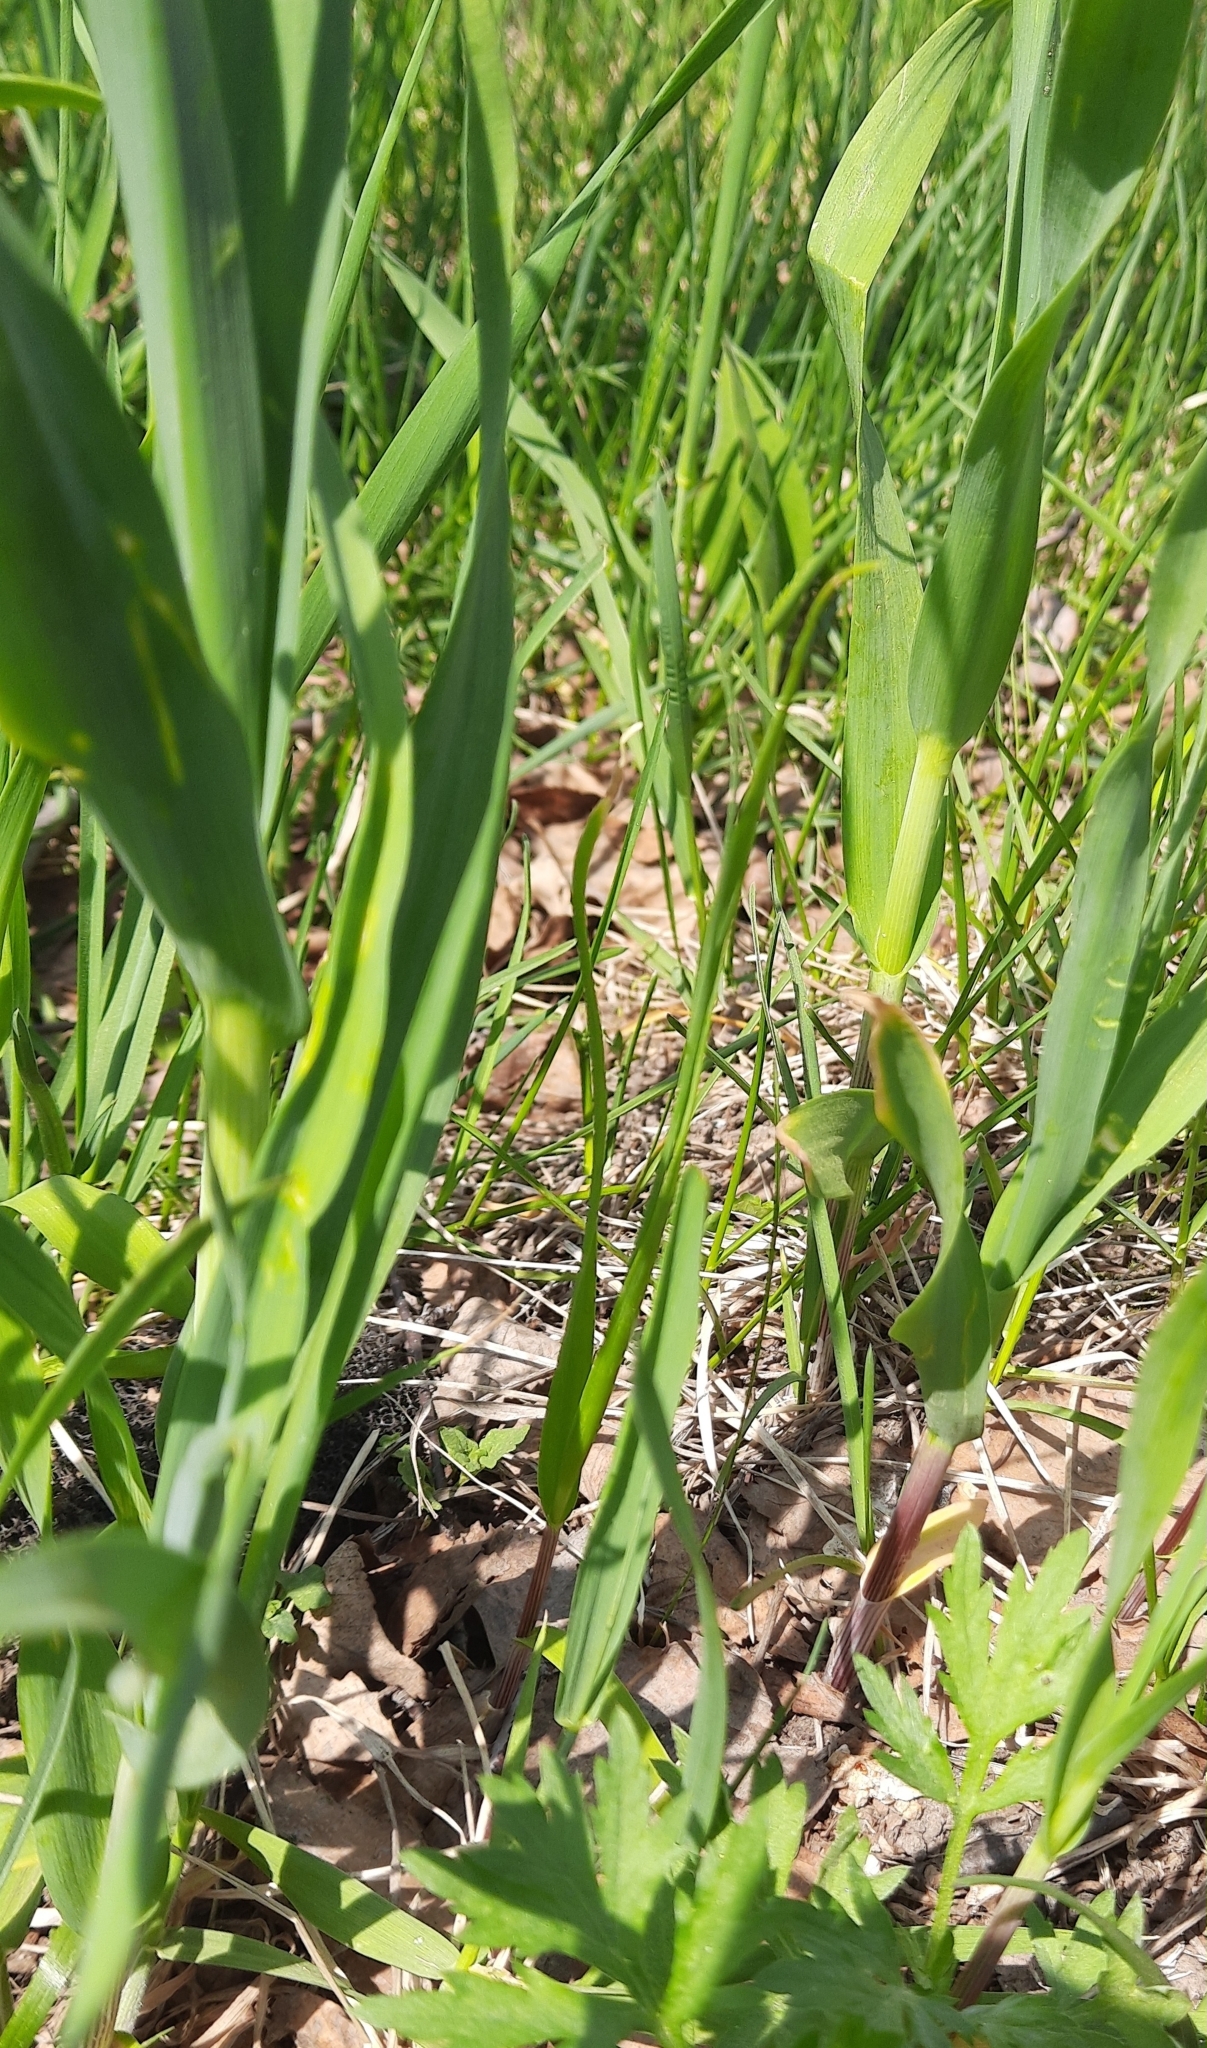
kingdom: Plantae
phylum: Tracheophyta
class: Liliopsida
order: Asparagales
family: Amaryllidaceae
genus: Allium
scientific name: Allium obliquum
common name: Oblique onion
